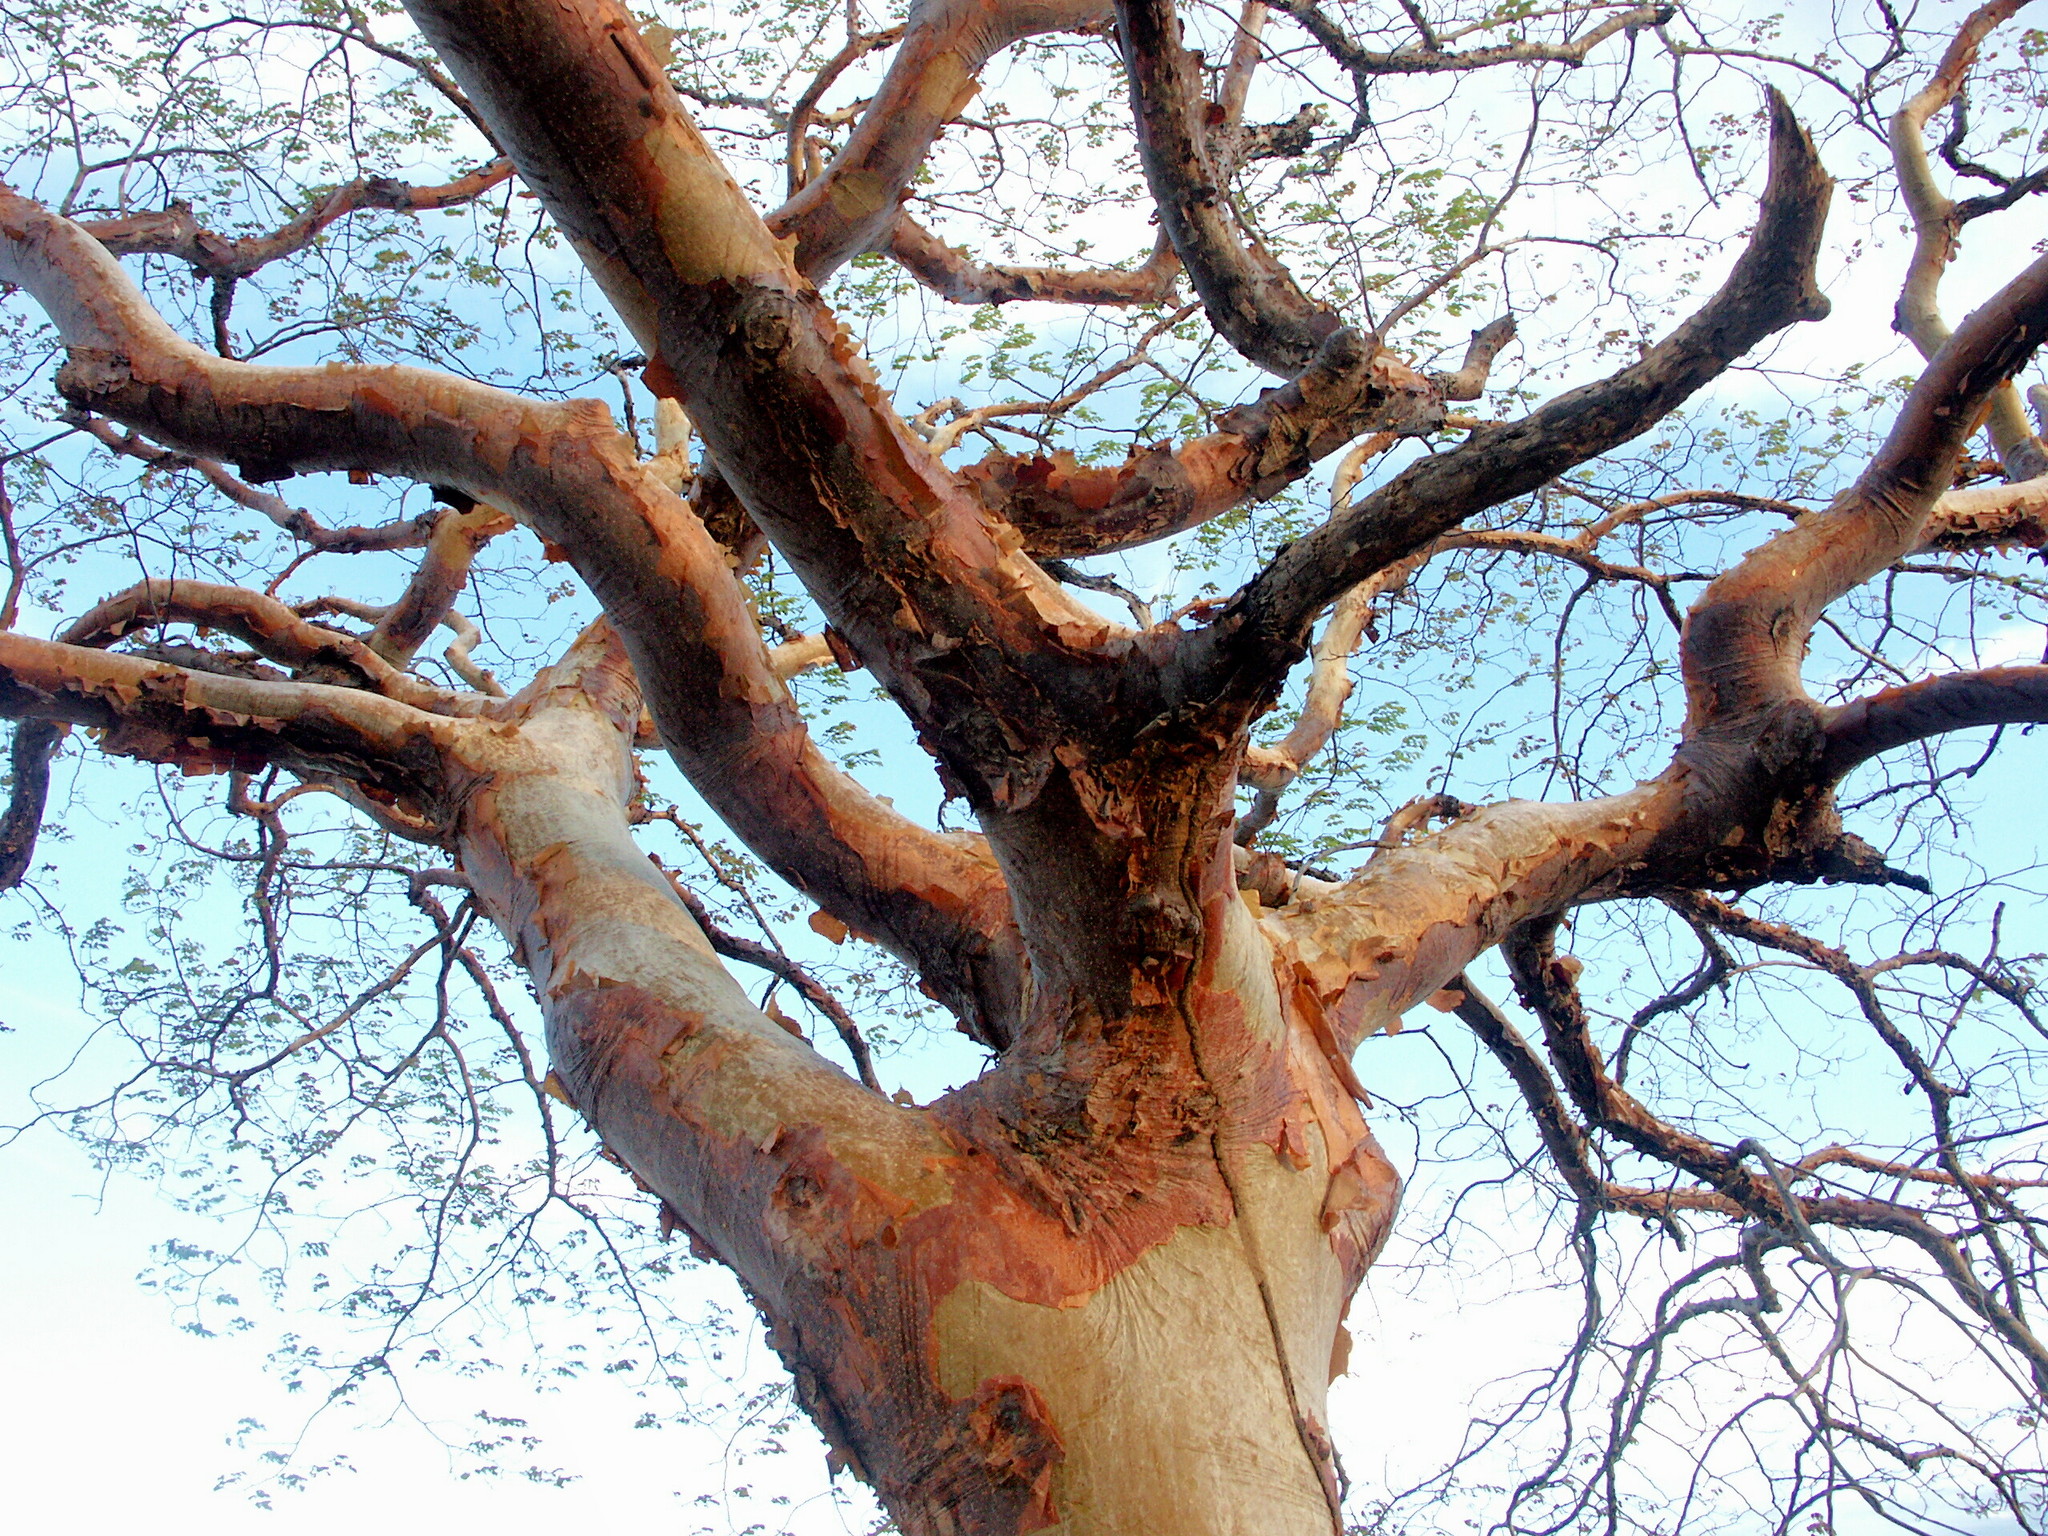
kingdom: Plantae
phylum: Tracheophyta
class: Magnoliopsida
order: Fabales
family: Fabaceae
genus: Amburana
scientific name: Amburana cearensis
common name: Cerejeira
